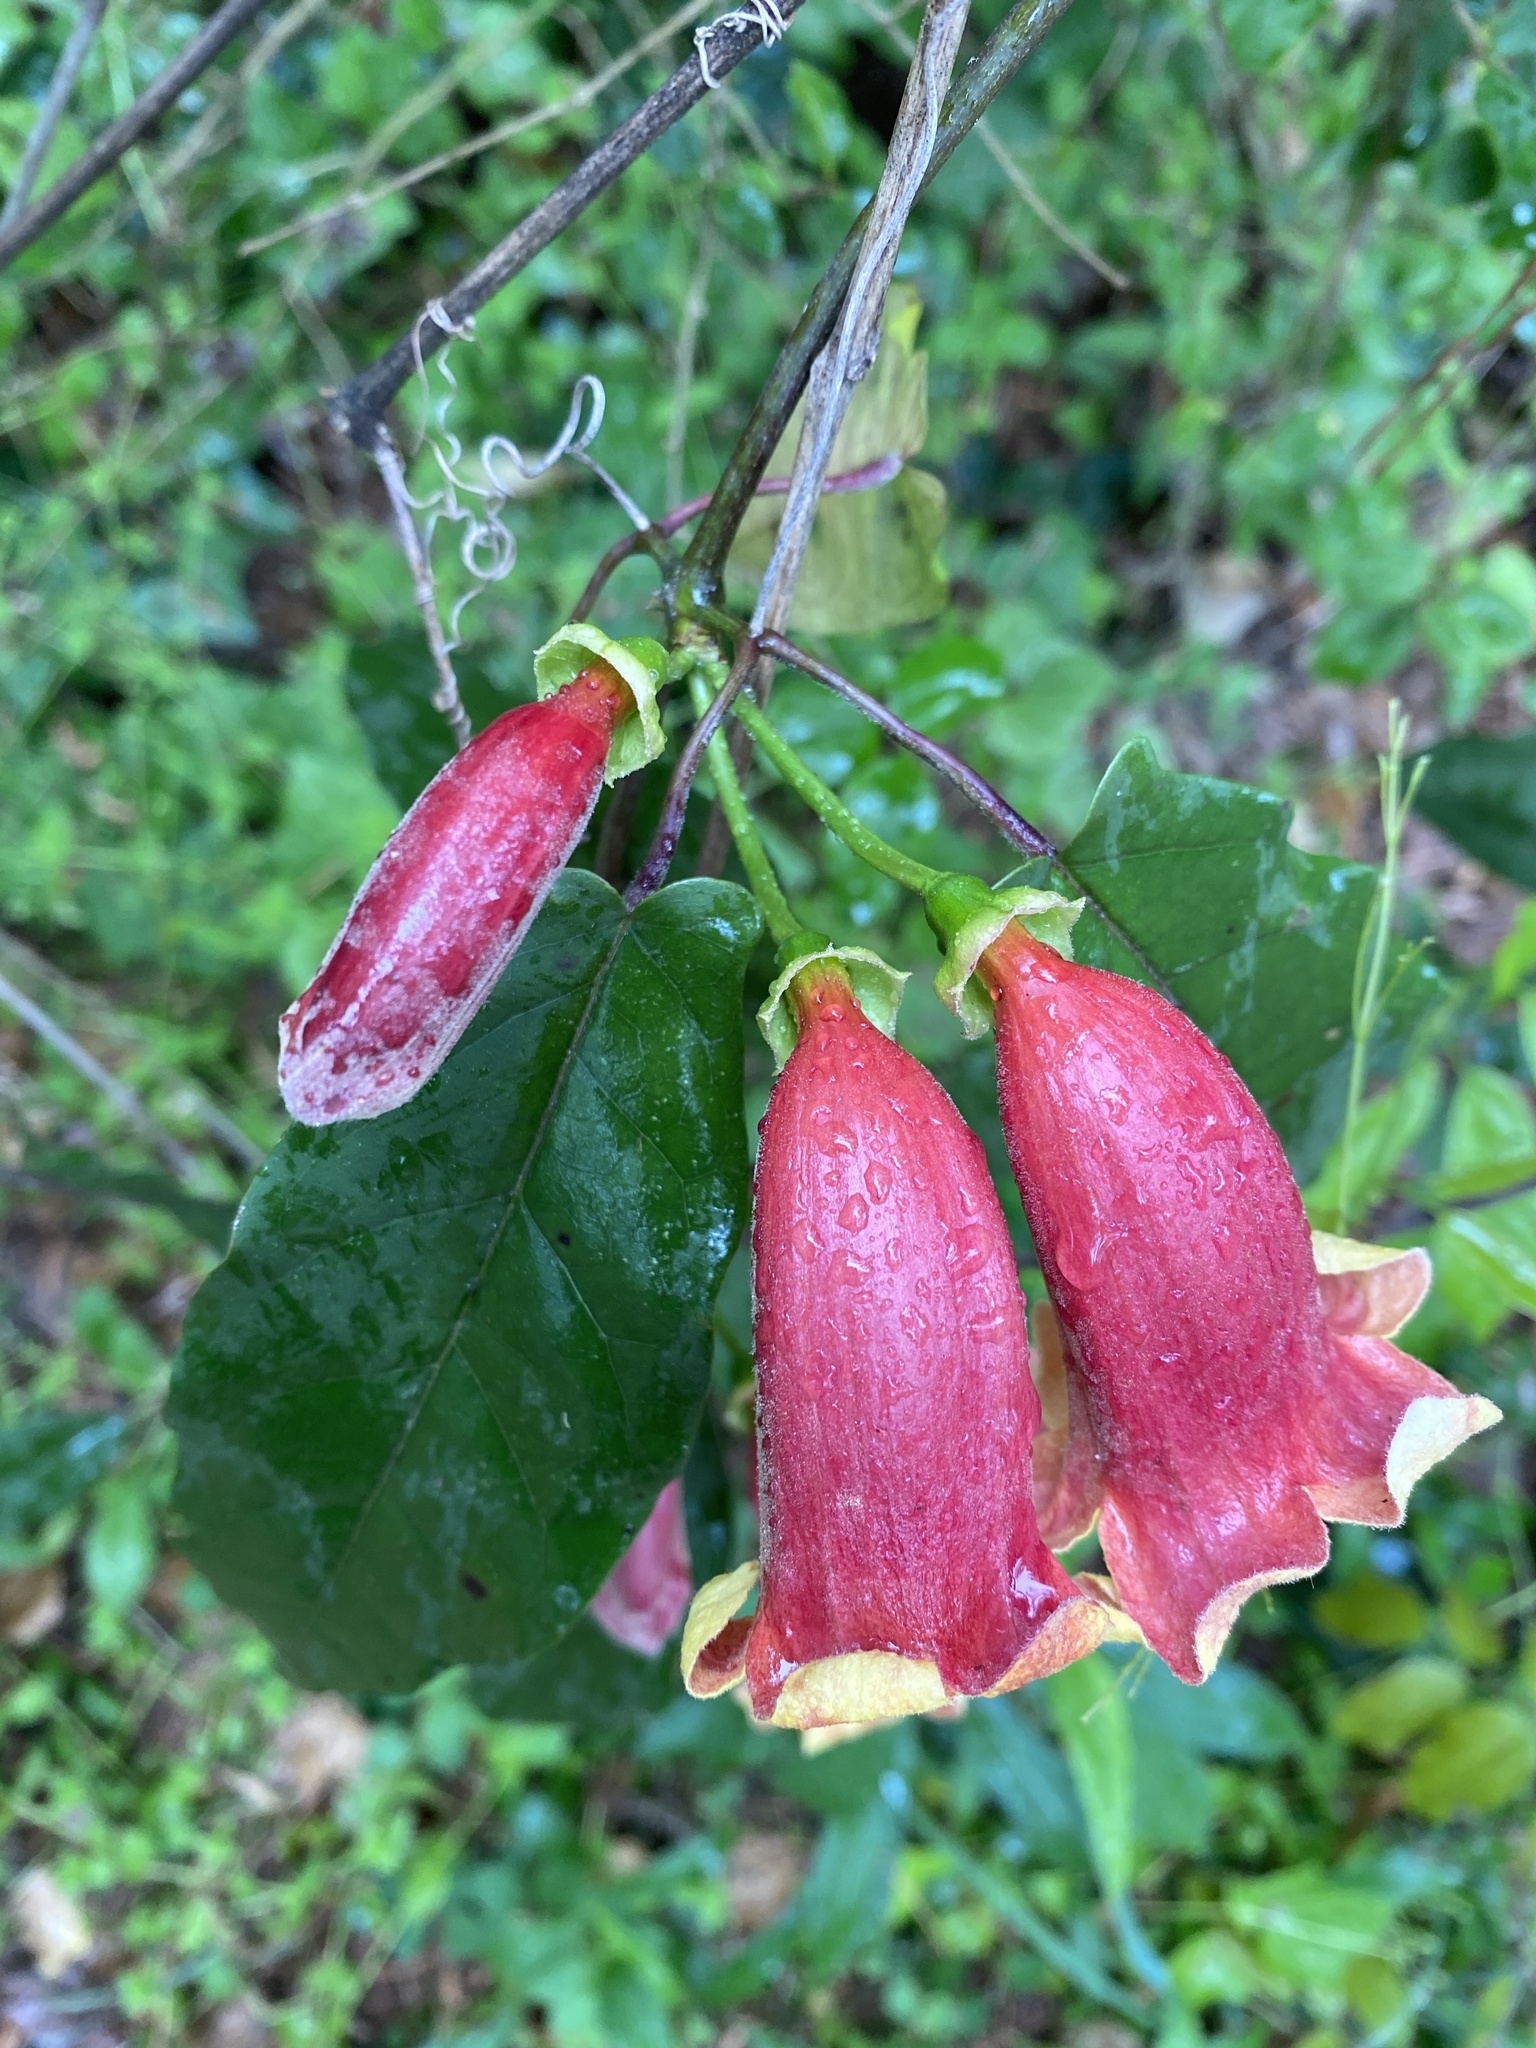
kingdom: Plantae
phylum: Tracheophyta
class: Magnoliopsida
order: Lamiales
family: Bignoniaceae
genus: Bignonia
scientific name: Bignonia capreolata
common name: Crossvine
